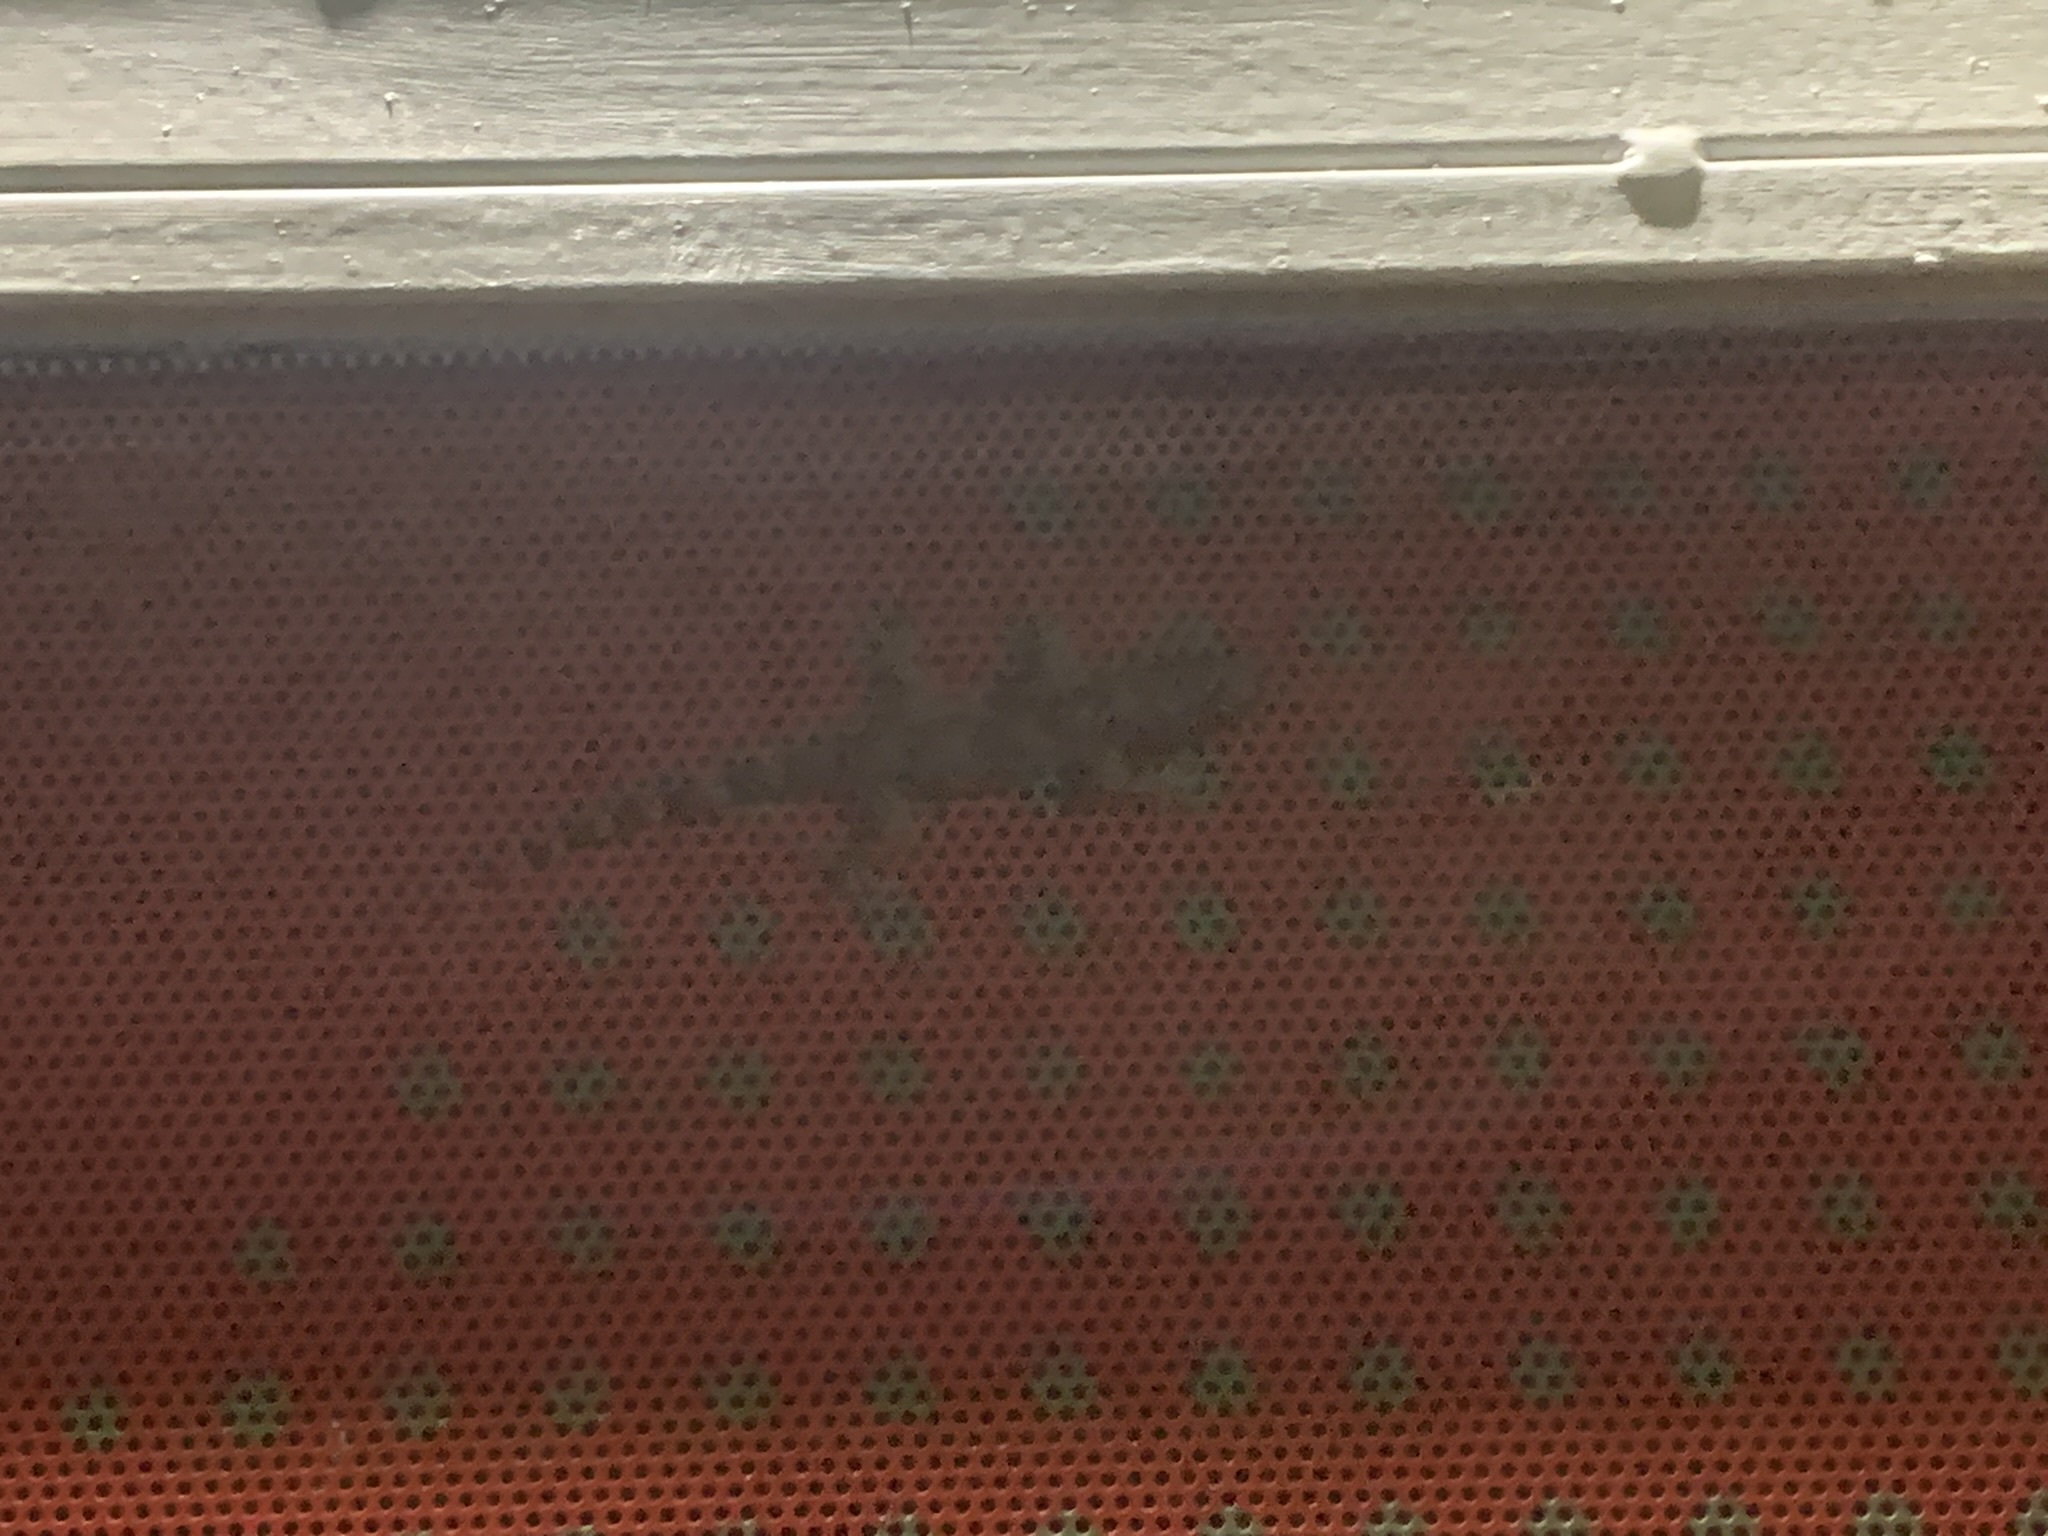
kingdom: Animalia
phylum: Chordata
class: Squamata
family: Gekkonidae
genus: Hemidactylus
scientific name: Hemidactylus mabouia
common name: House gecko
